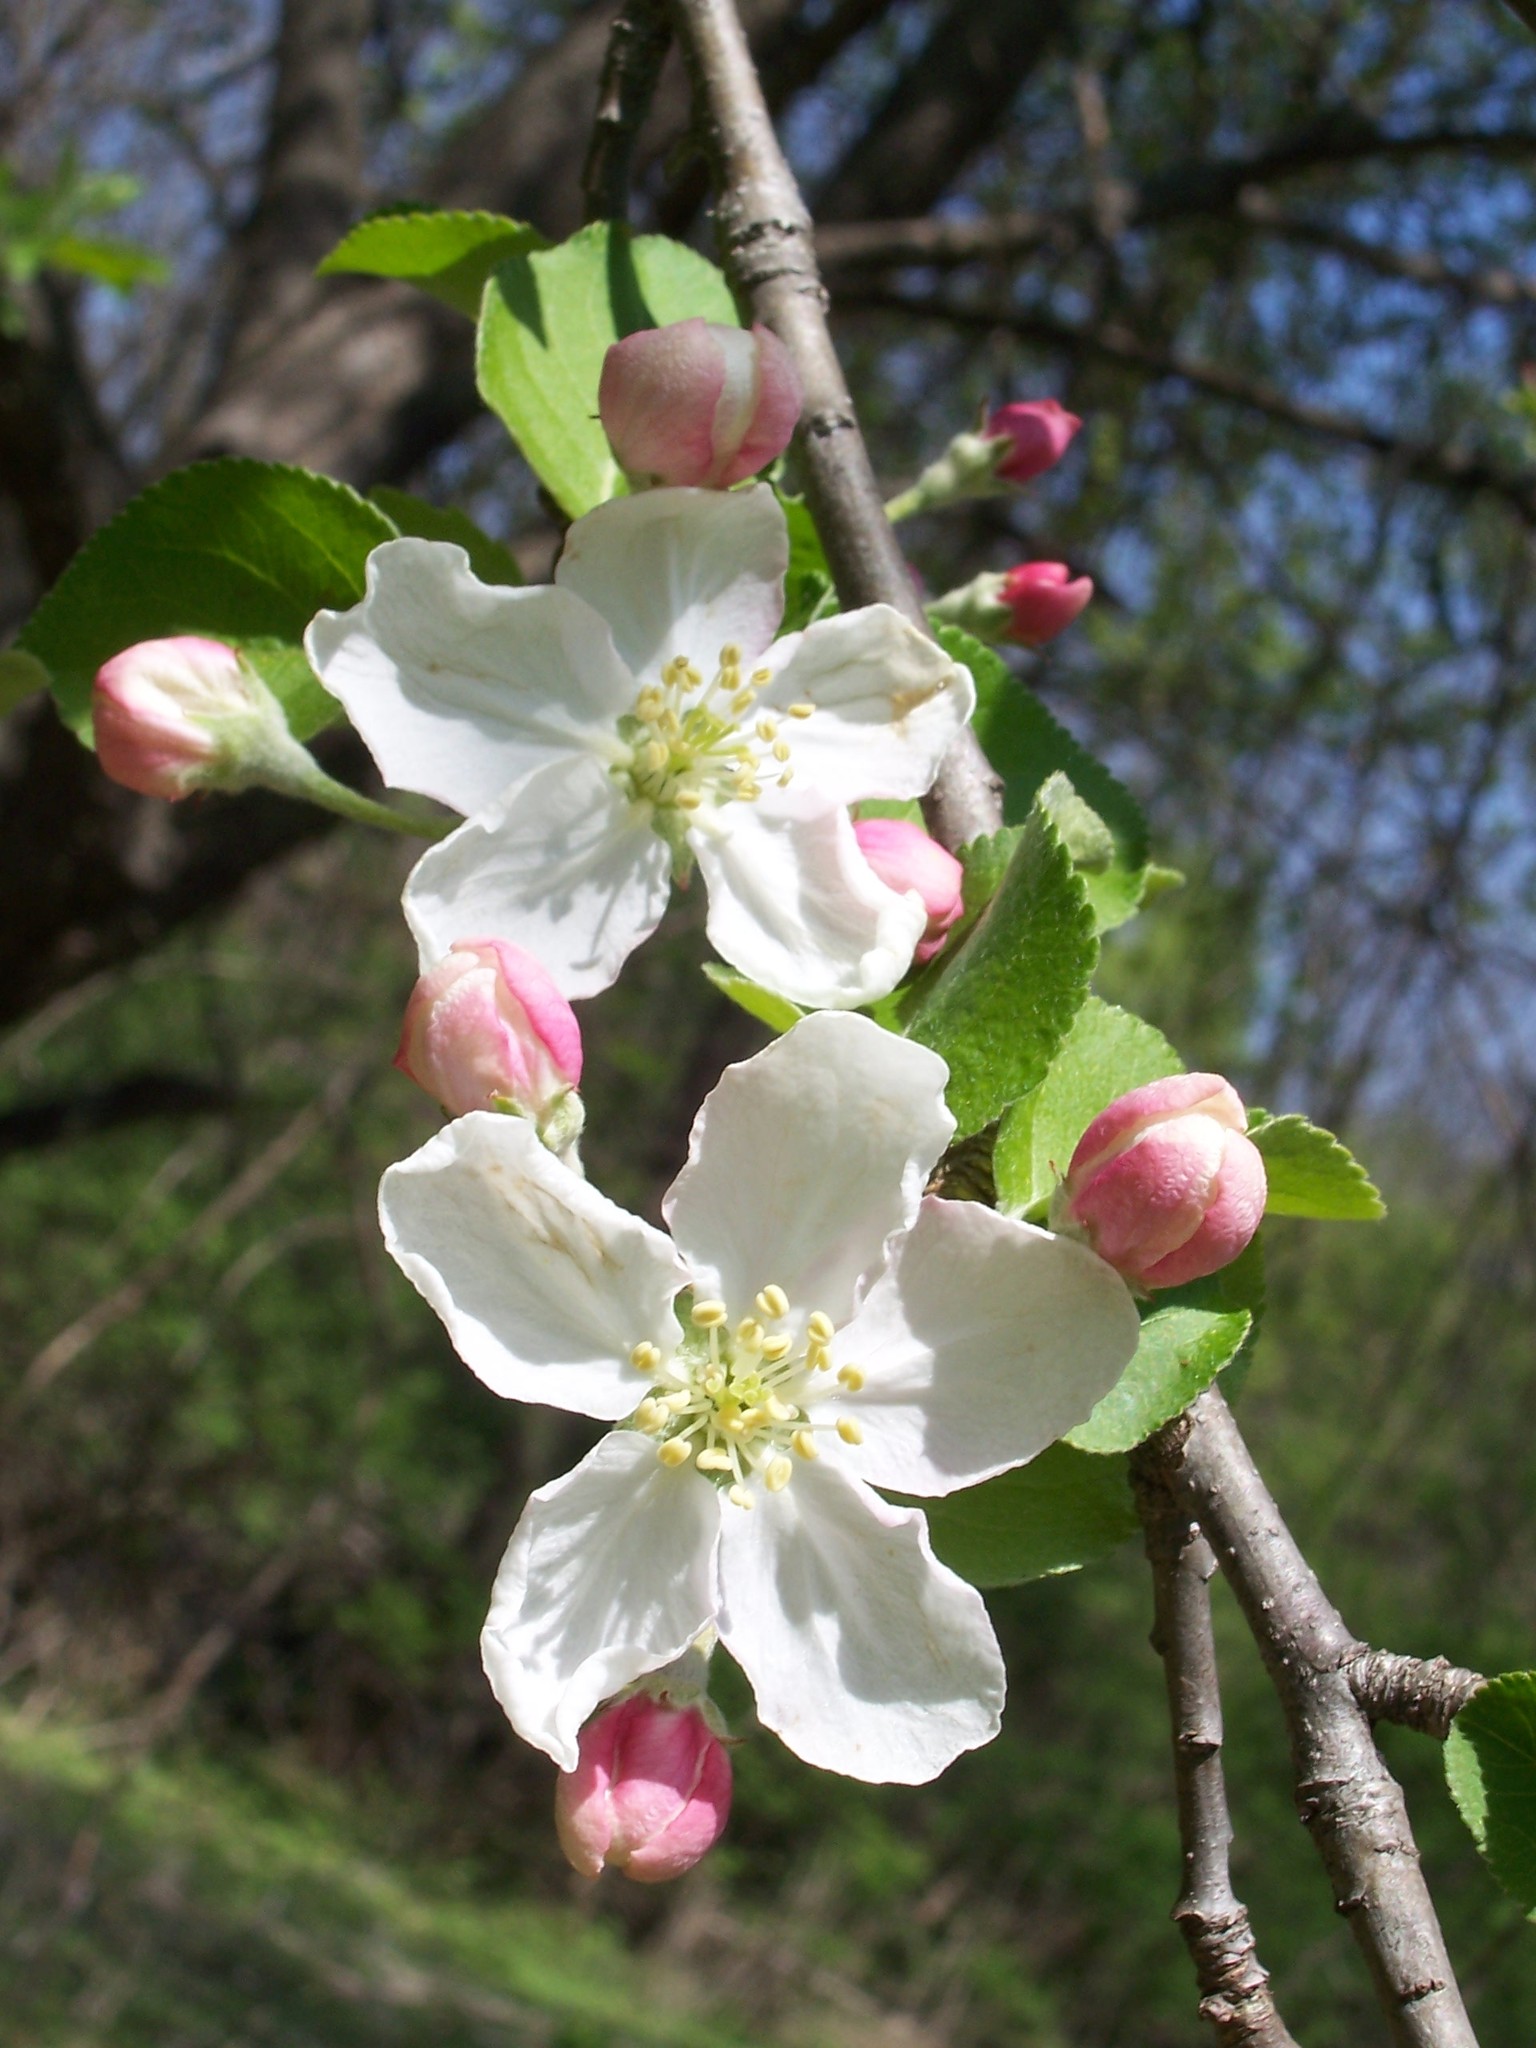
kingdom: Plantae
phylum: Tracheophyta
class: Magnoliopsida
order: Rosales
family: Rosaceae
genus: Malus
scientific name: Malus domestica
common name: Apple
